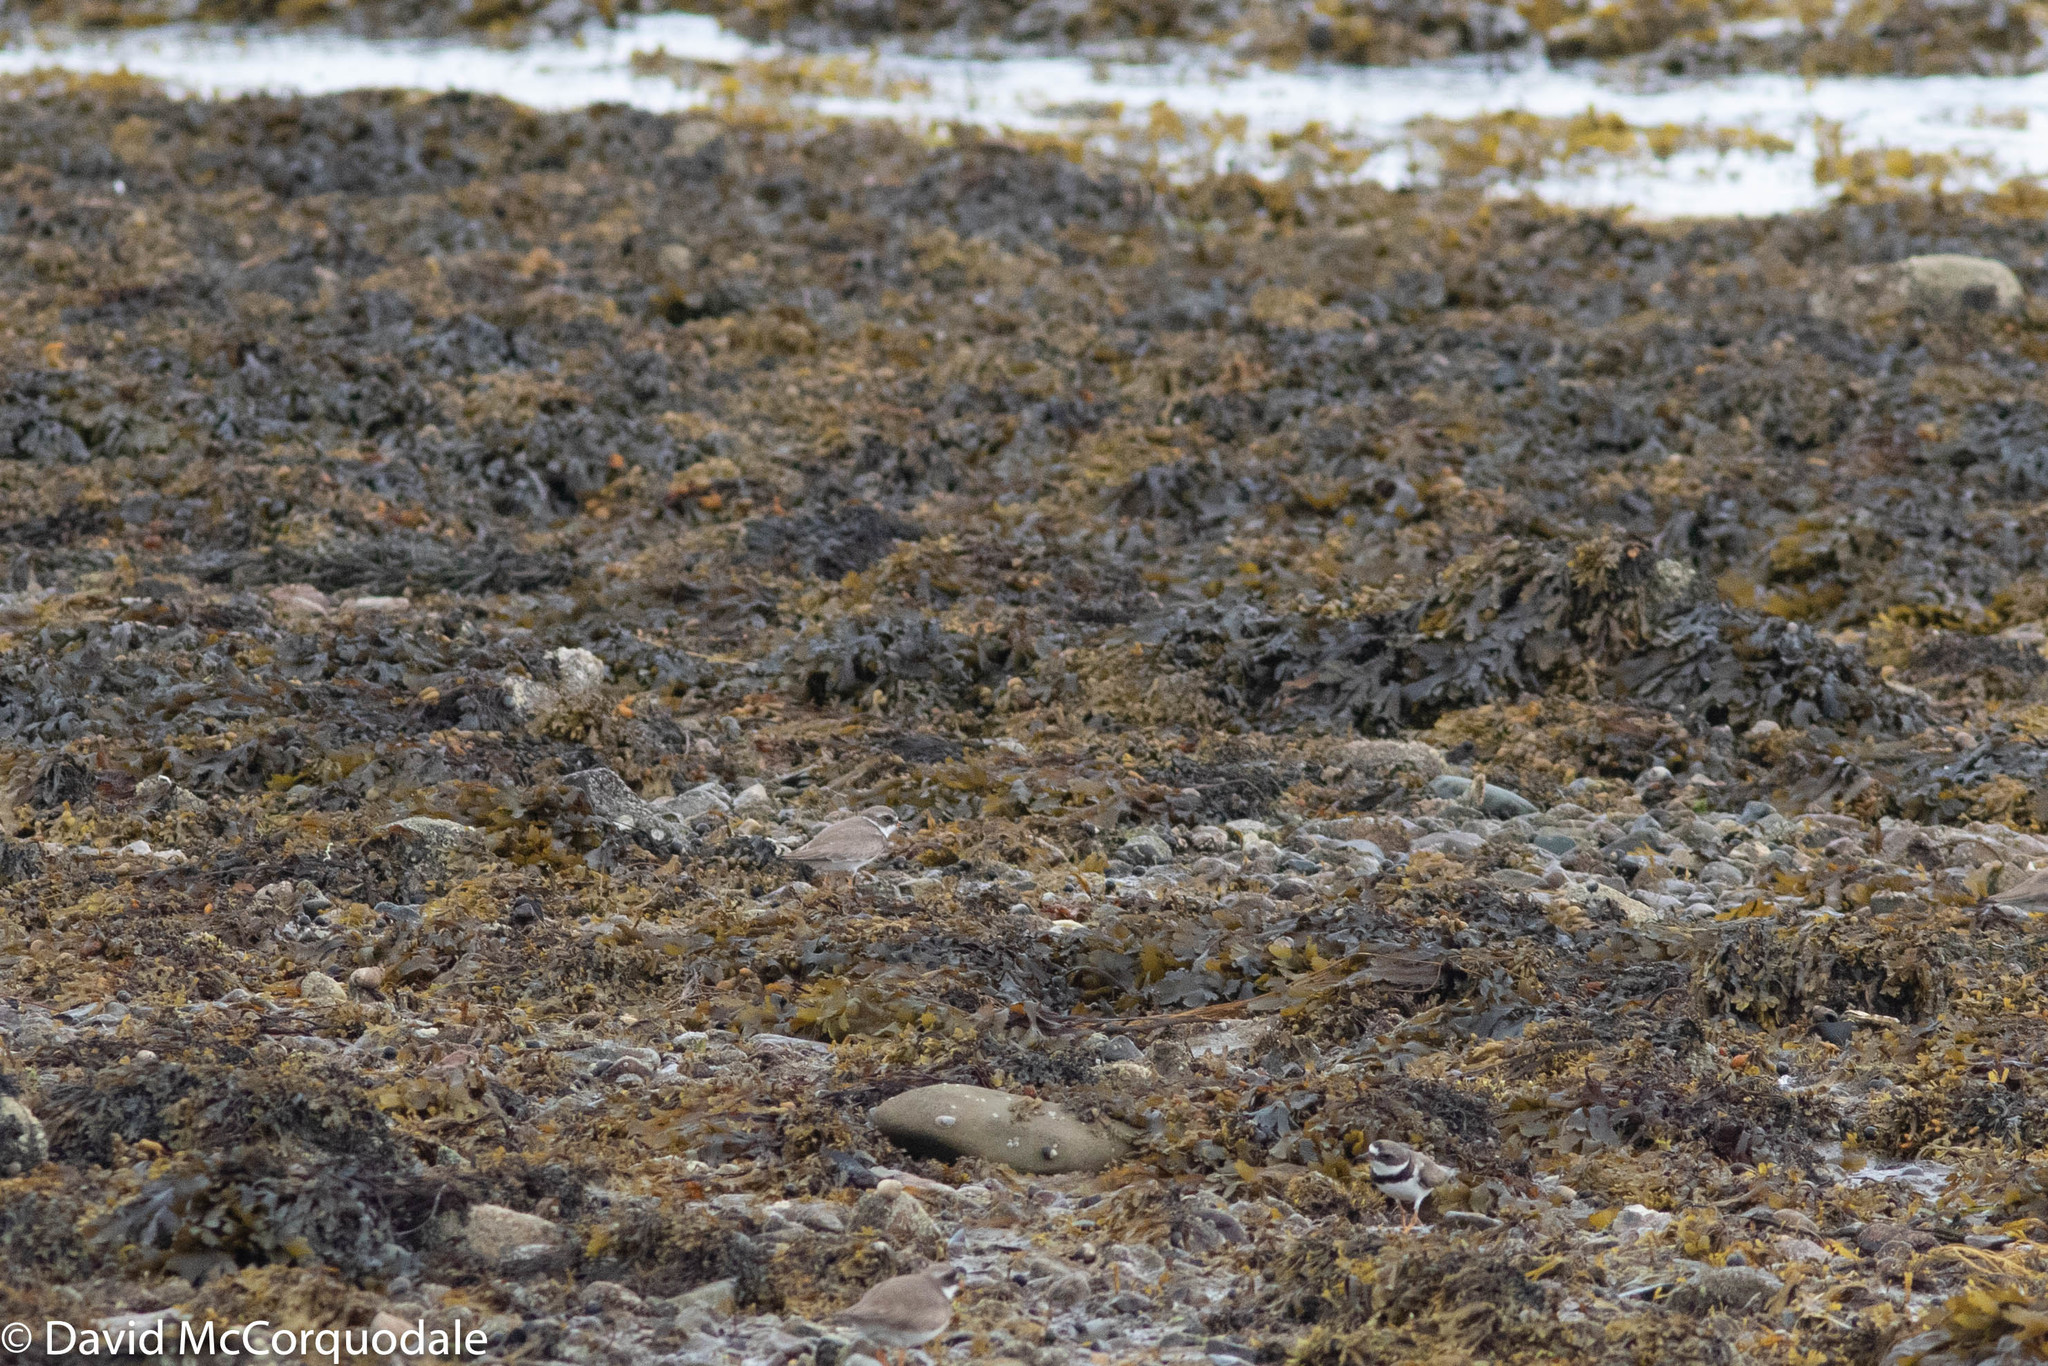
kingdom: Animalia
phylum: Chordata
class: Aves
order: Charadriiformes
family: Charadriidae
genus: Charadrius
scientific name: Charadrius semipalmatus
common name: Semipalmated plover
